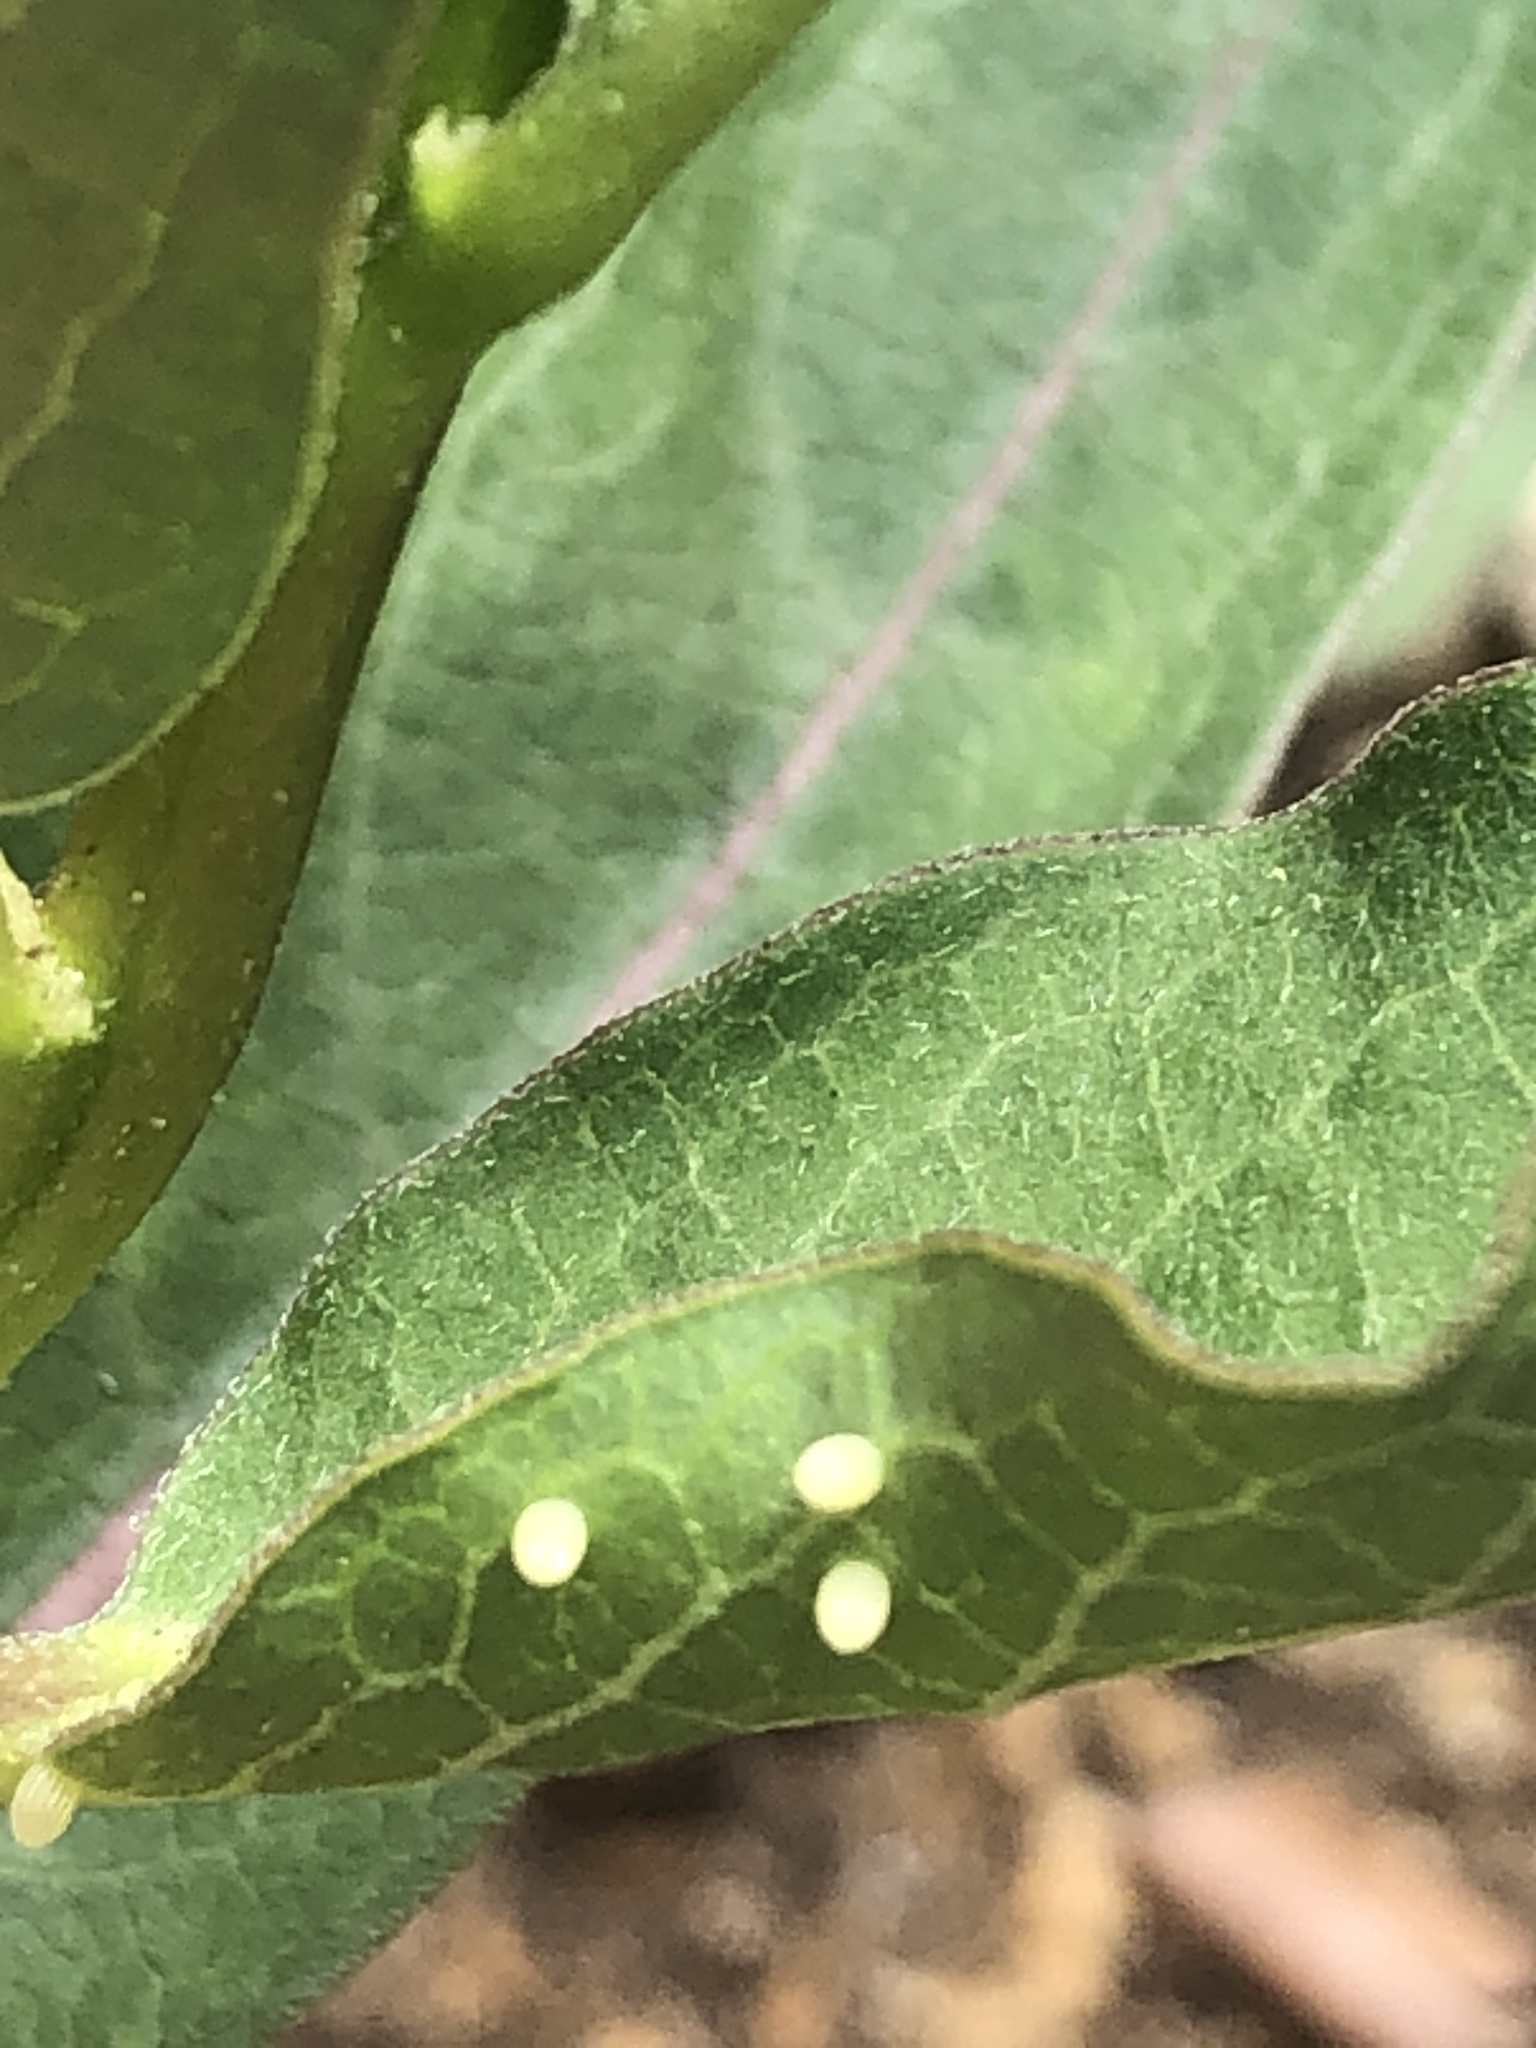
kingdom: Animalia
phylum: Arthropoda
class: Insecta
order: Lepidoptera
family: Nymphalidae
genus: Danaus
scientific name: Danaus plexippus
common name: Monarch
